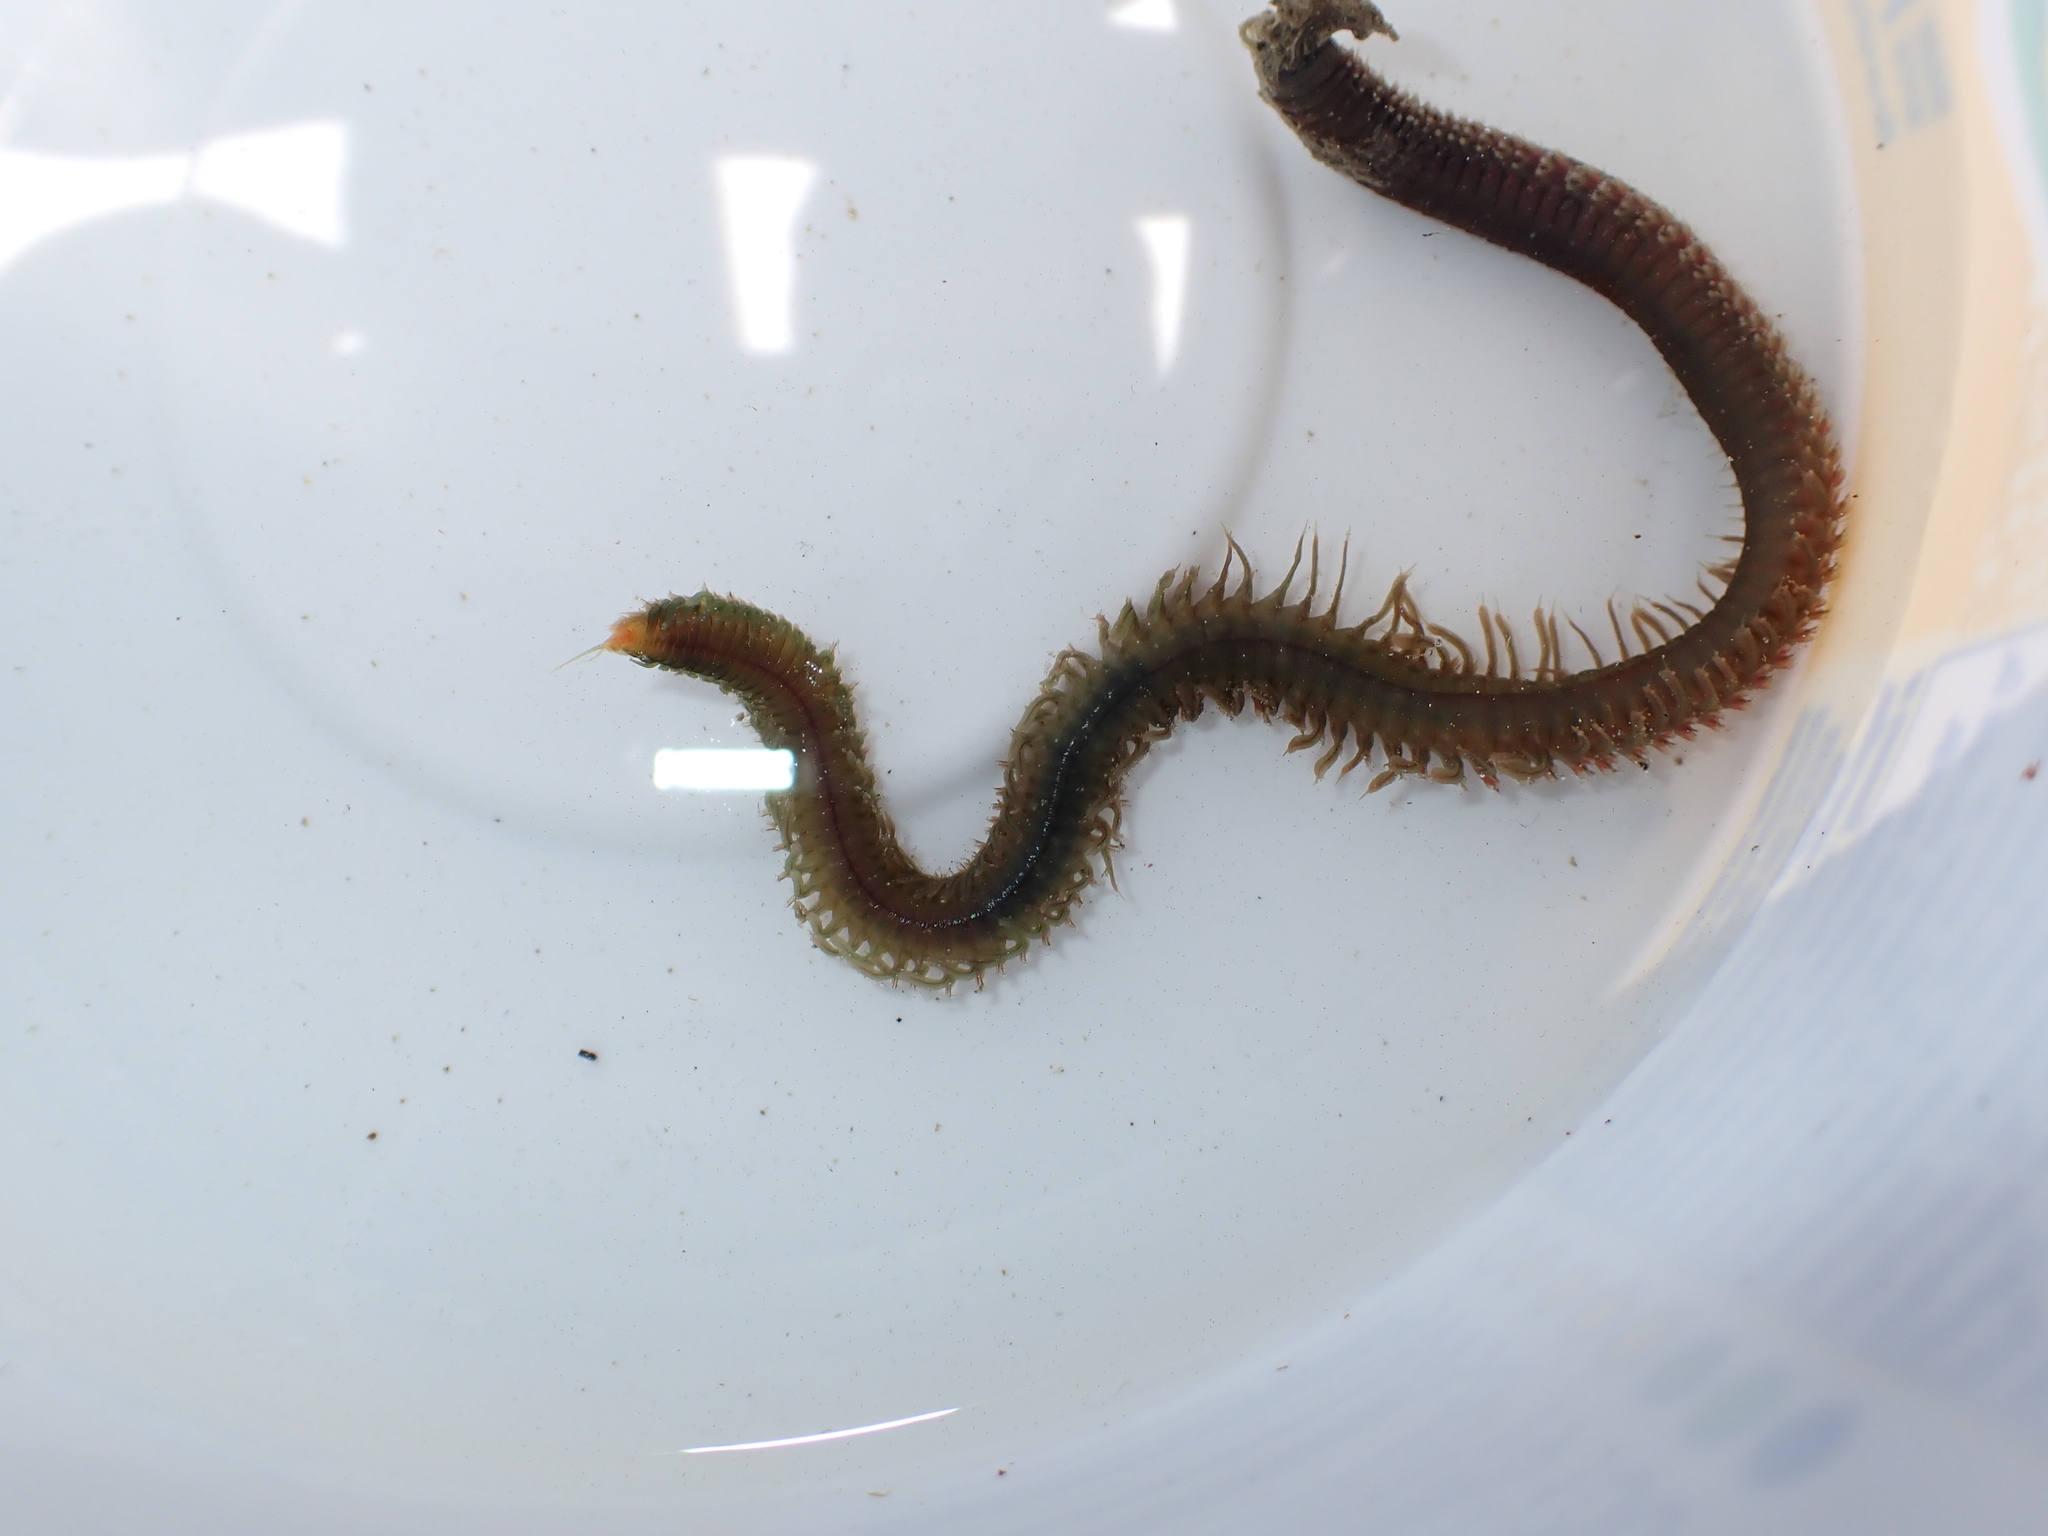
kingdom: Animalia
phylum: Annelida
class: Polychaeta
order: Phyllodocida
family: Nereididae
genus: Nereis
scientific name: Nereis vexillosa
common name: Mussel worm
